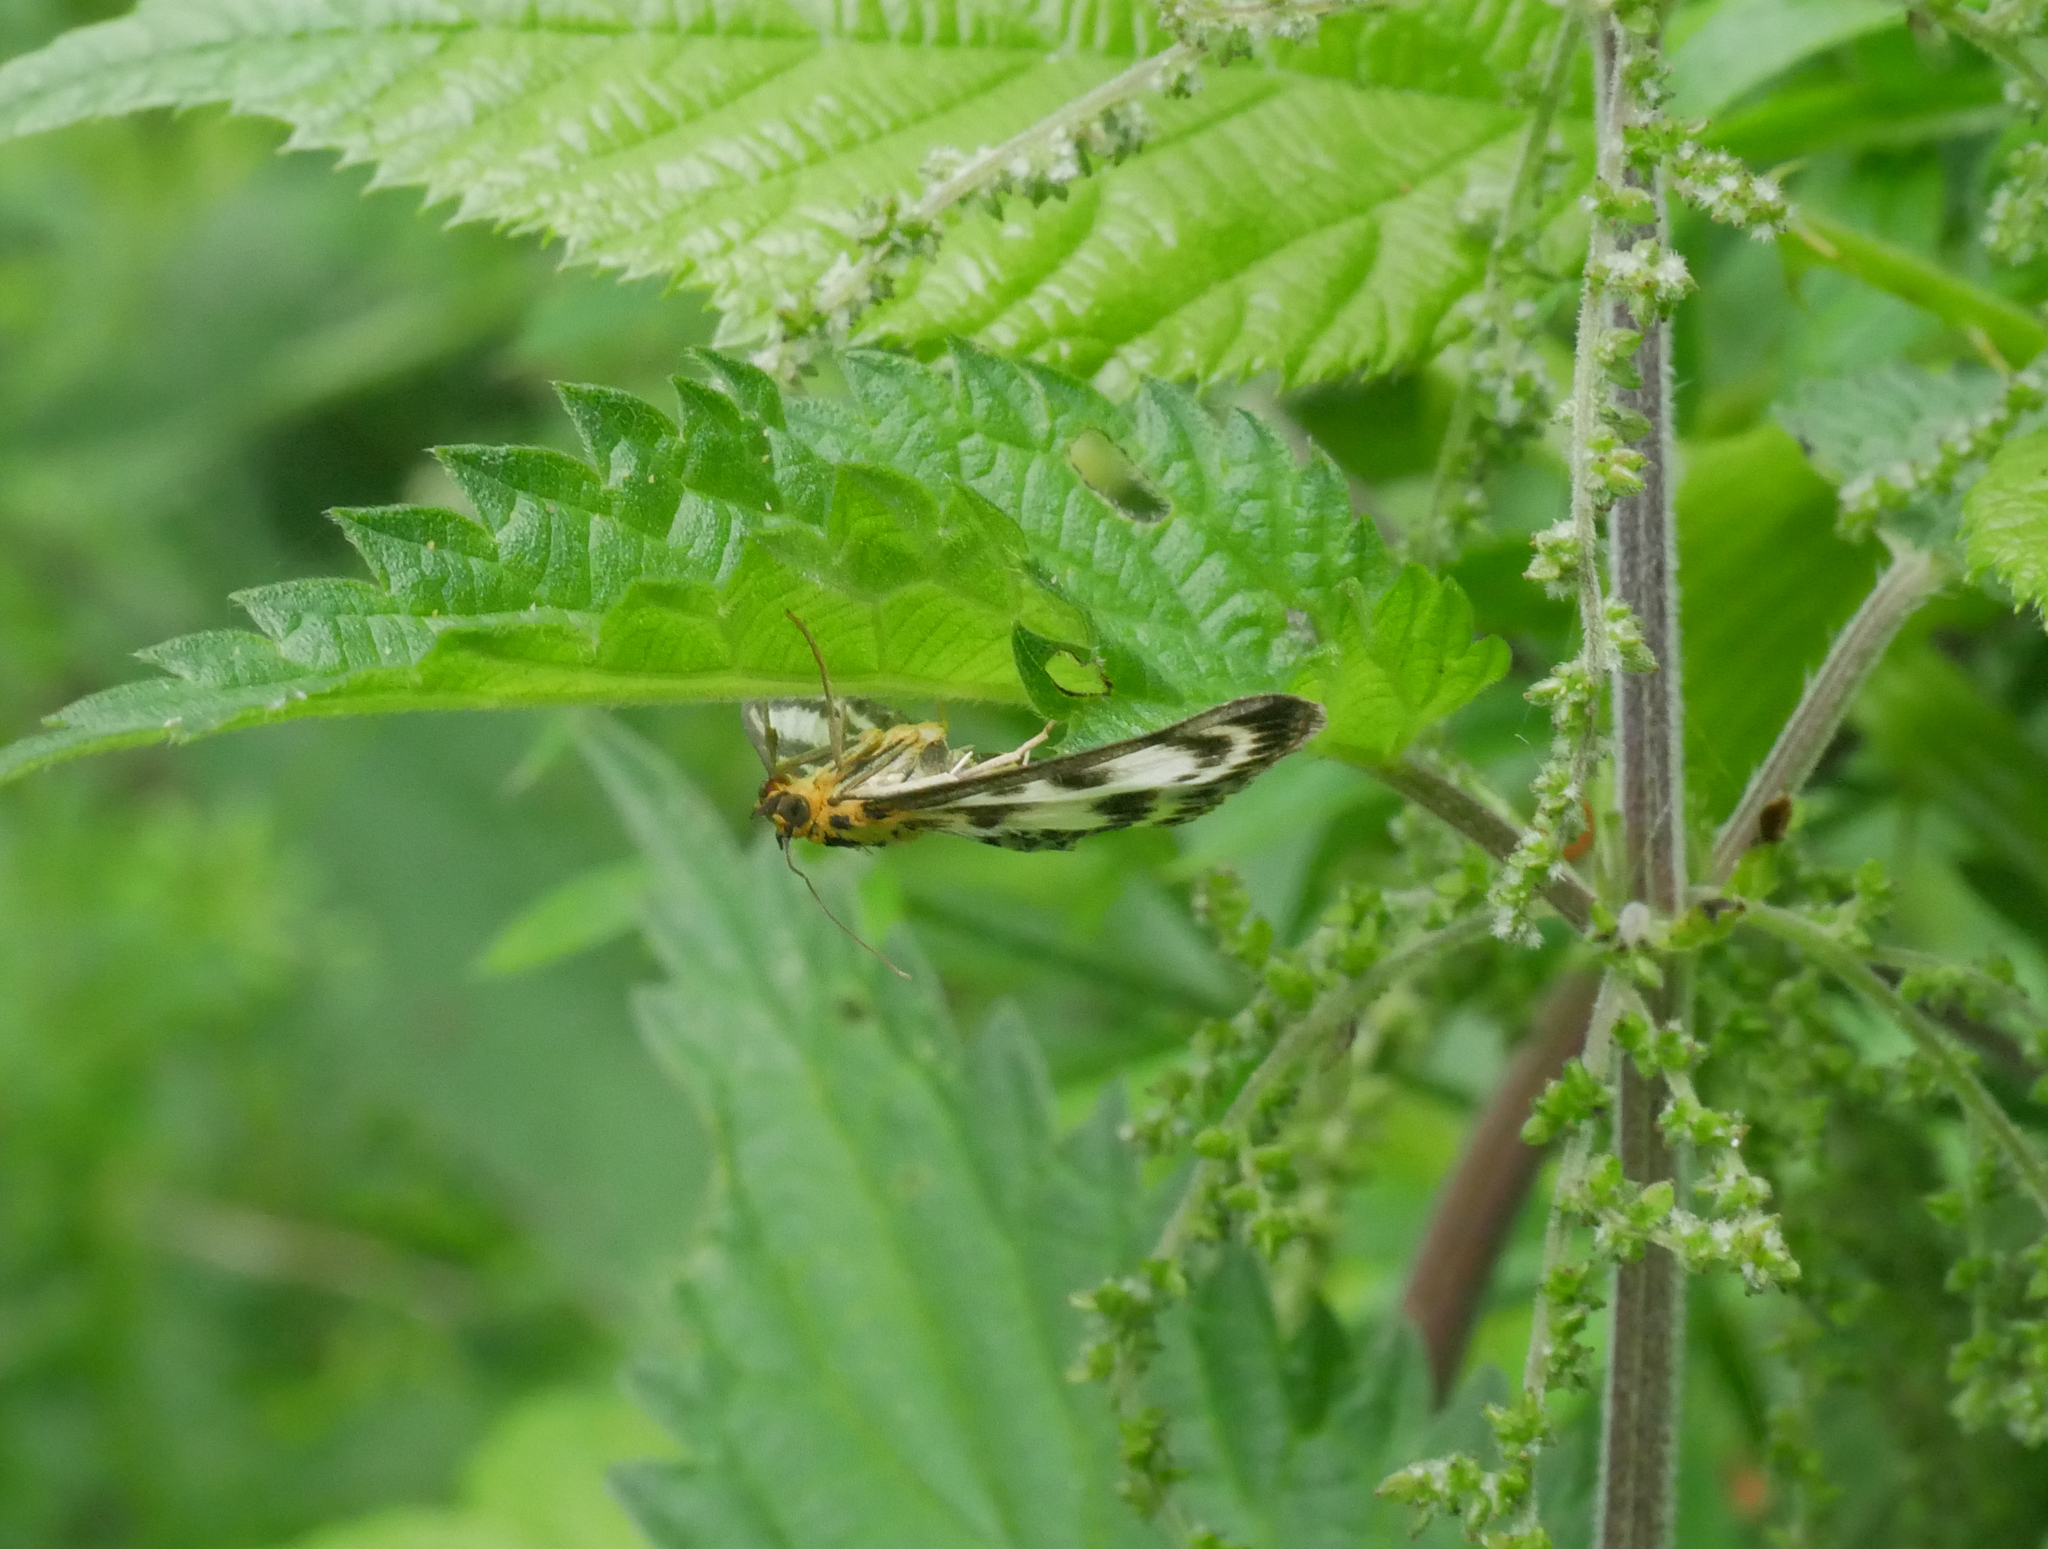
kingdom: Animalia
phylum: Arthropoda
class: Insecta
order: Lepidoptera
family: Crambidae
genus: Anania
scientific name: Anania hortulata
